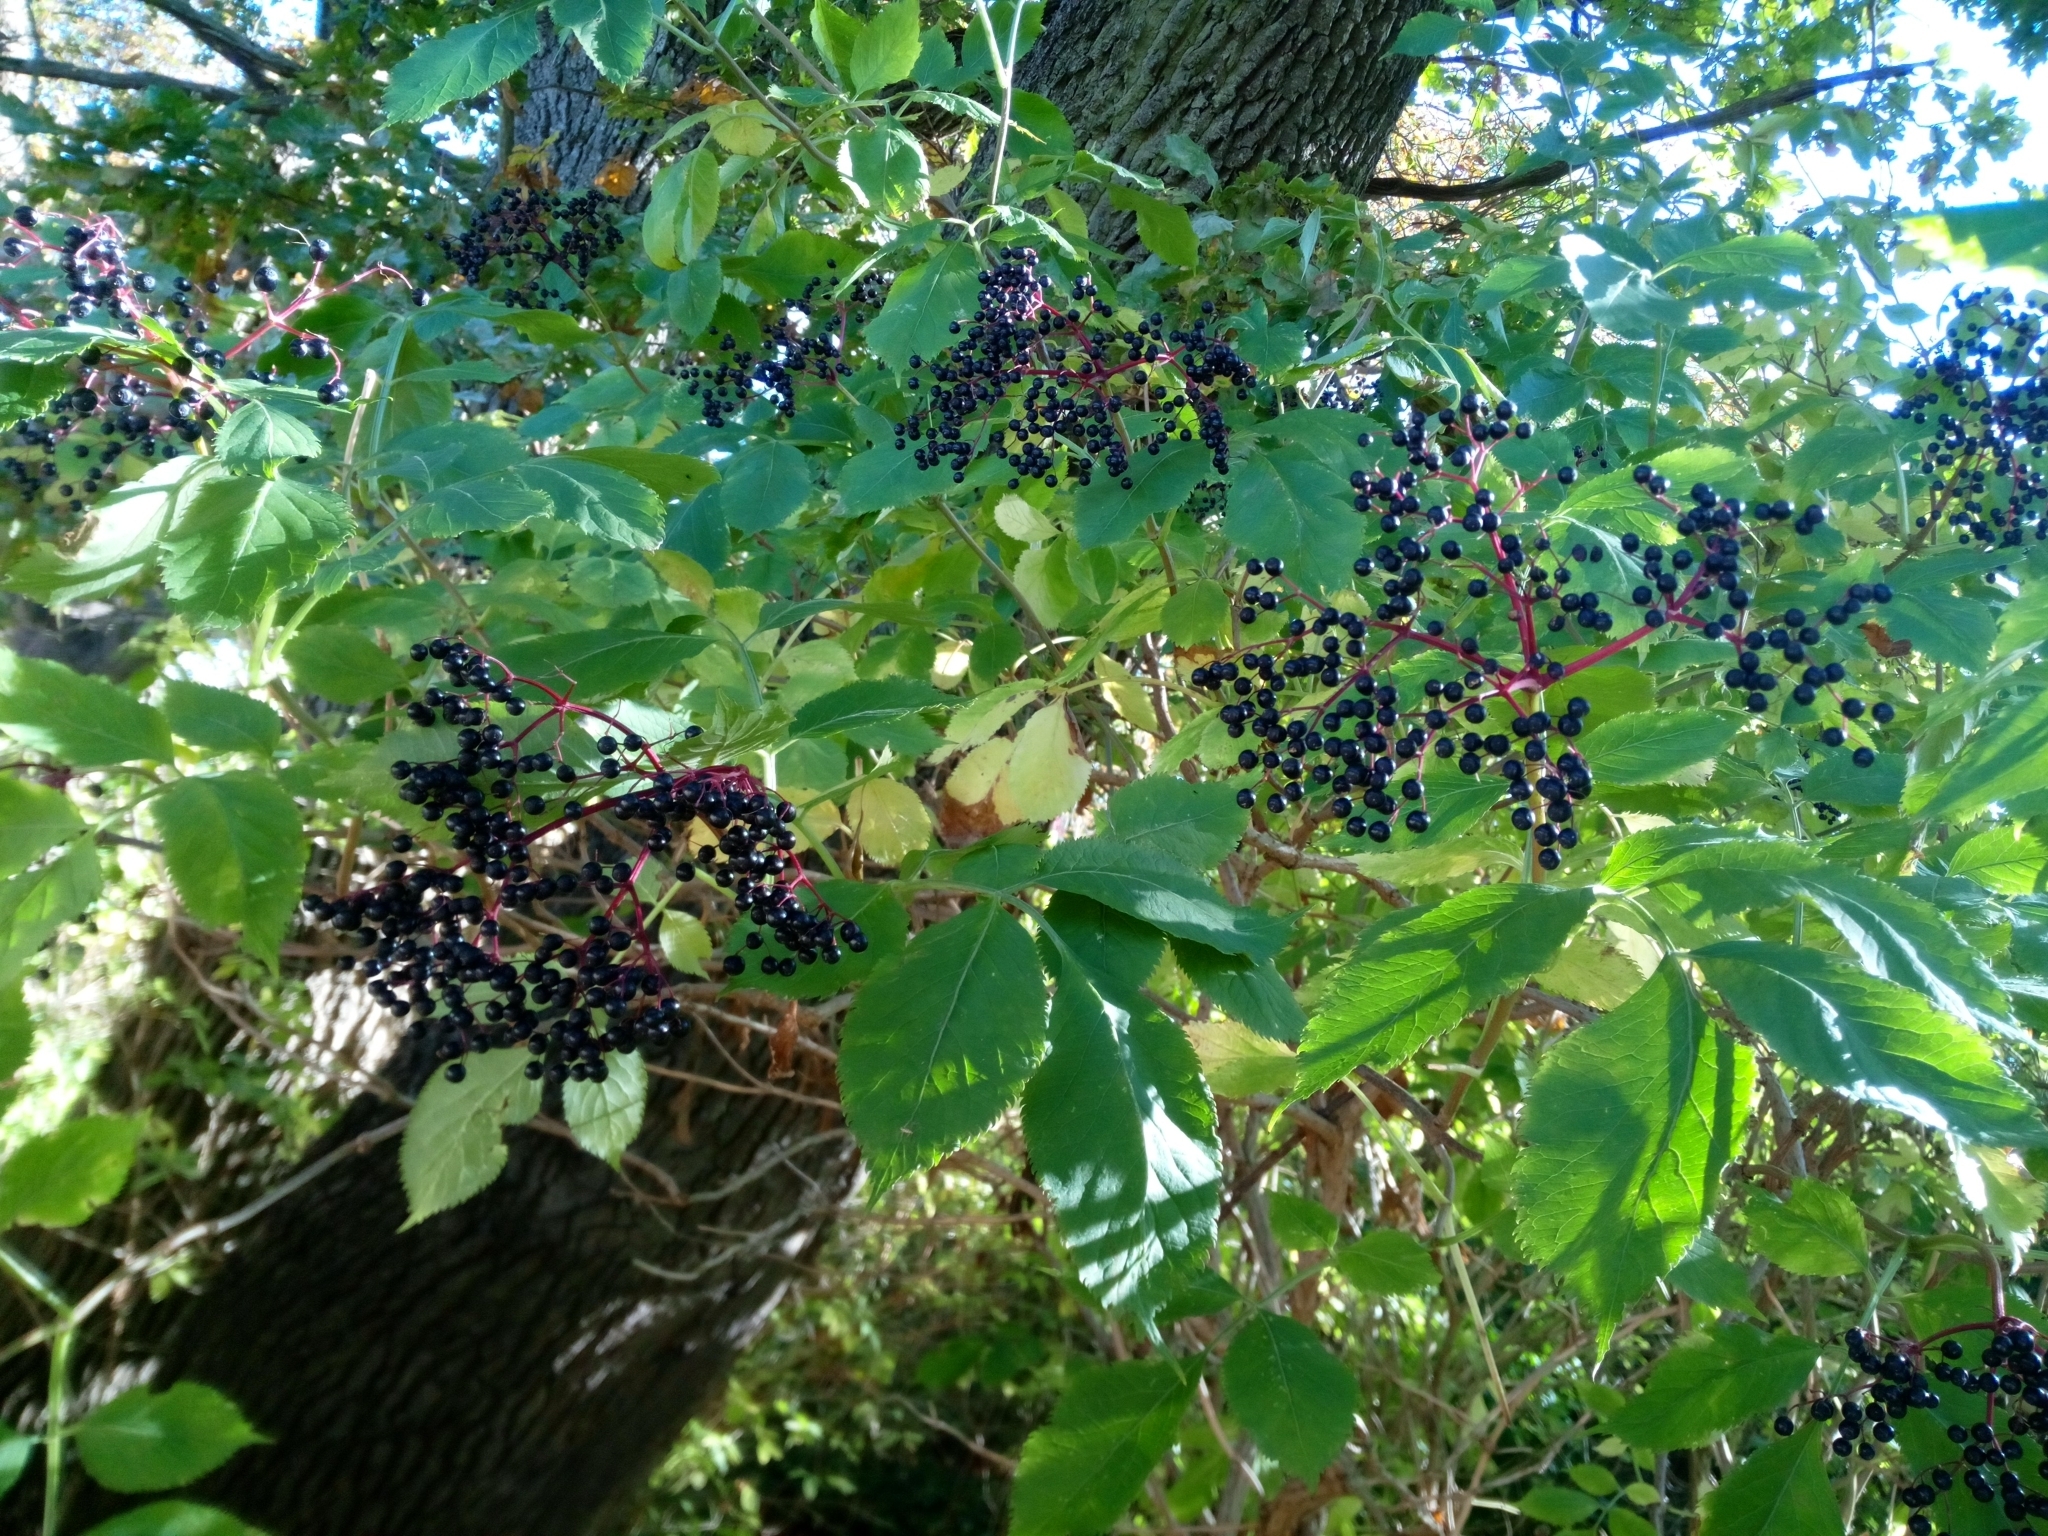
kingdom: Plantae
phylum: Tracheophyta
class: Magnoliopsida
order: Dipsacales
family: Viburnaceae
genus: Sambucus
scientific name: Sambucus nigra
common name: Elder
